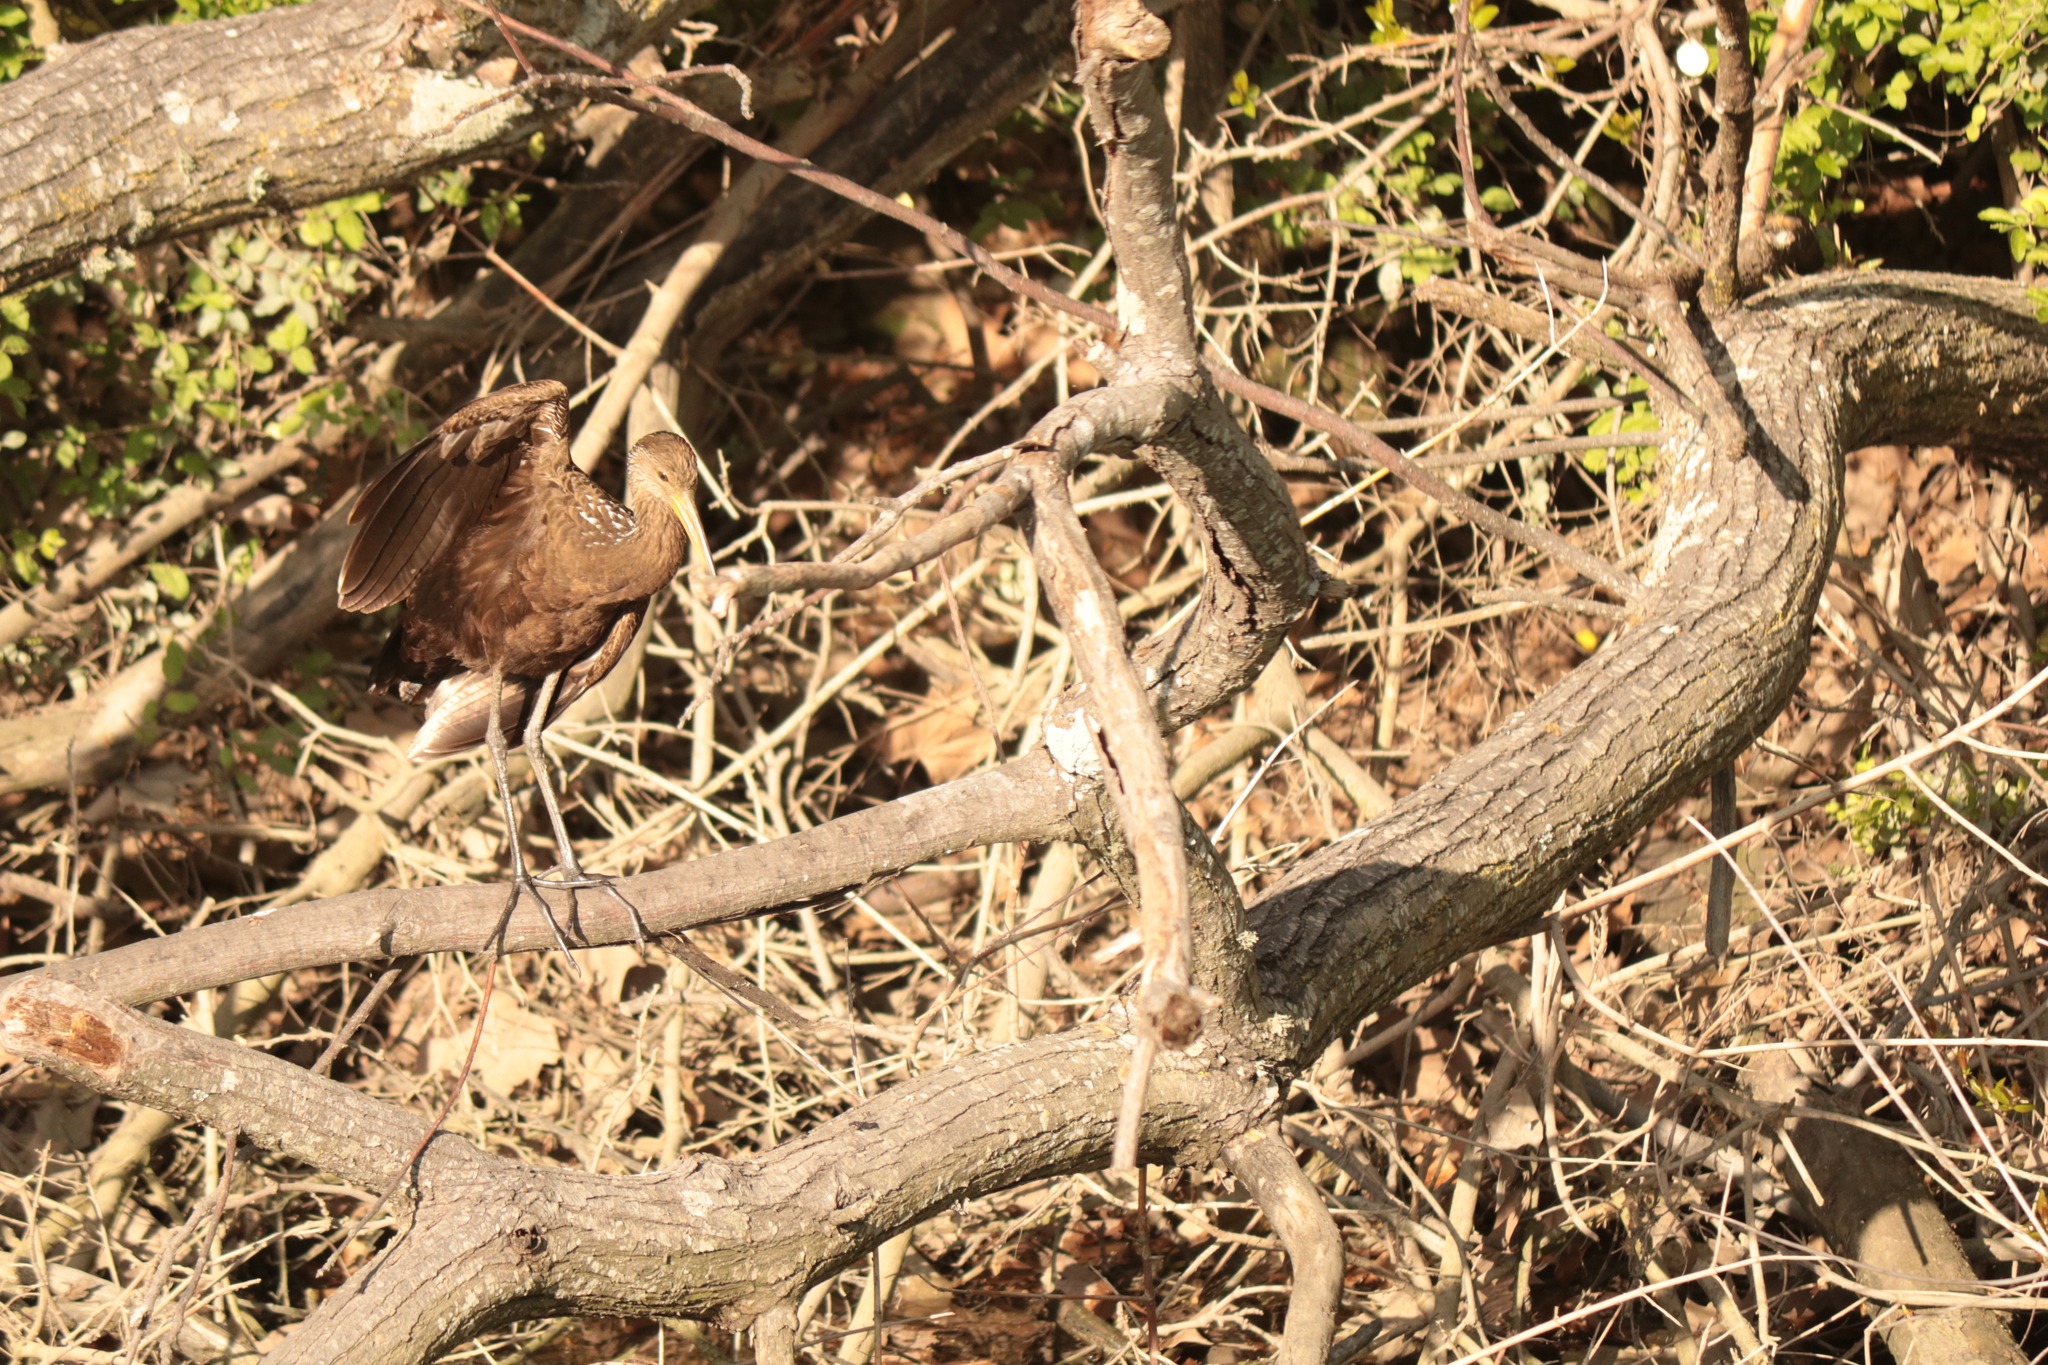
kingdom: Animalia
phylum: Chordata
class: Aves
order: Gruiformes
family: Aramidae
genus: Aramus
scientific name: Aramus guarauna
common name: Limpkin
